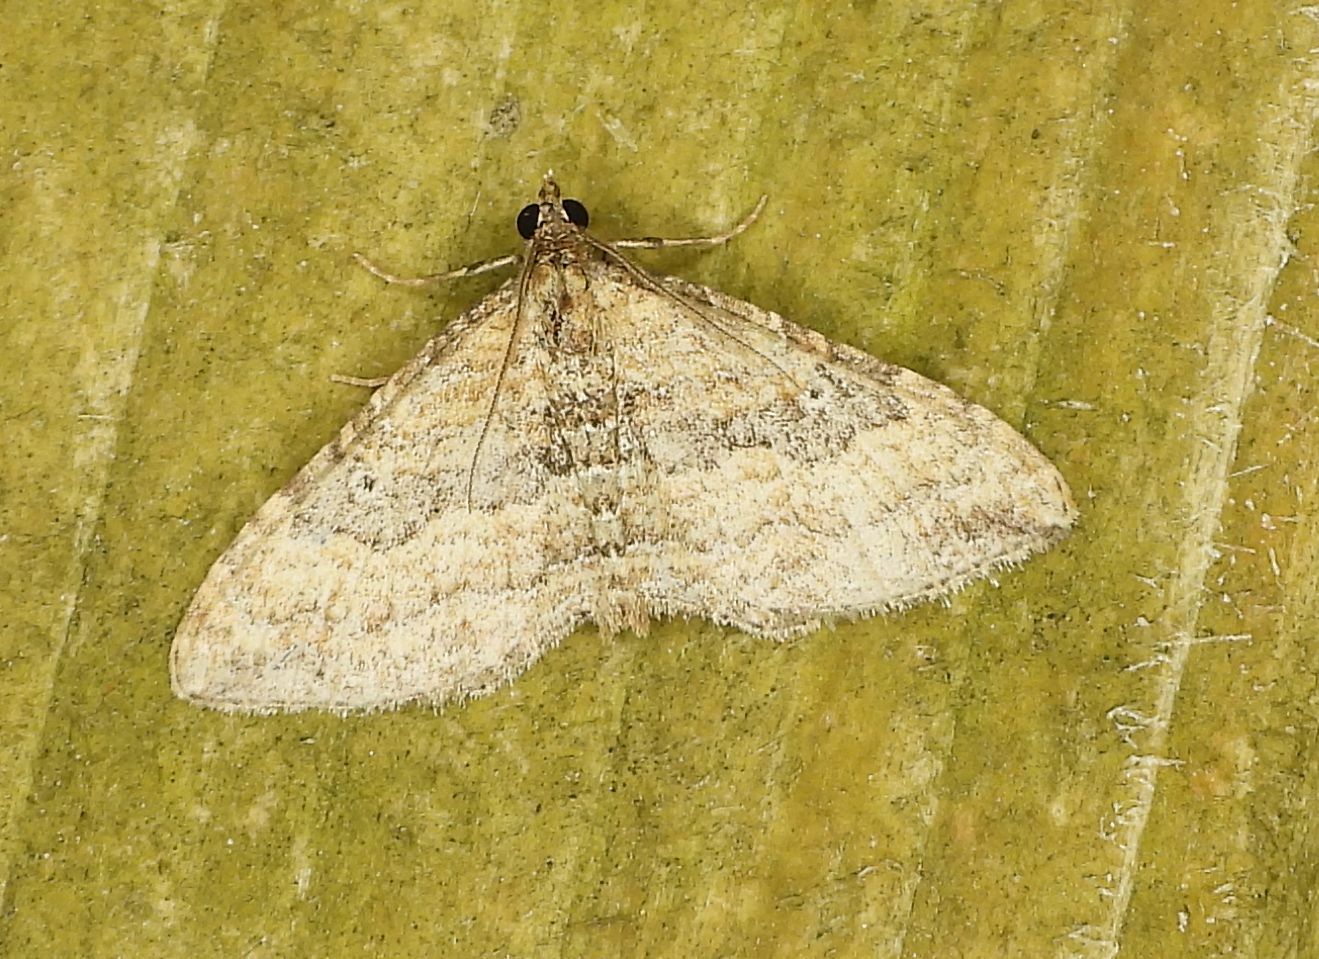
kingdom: Animalia
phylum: Arthropoda
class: Insecta
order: Lepidoptera
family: Geometridae
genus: Orthonama
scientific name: Orthonama obstipata
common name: The gem
